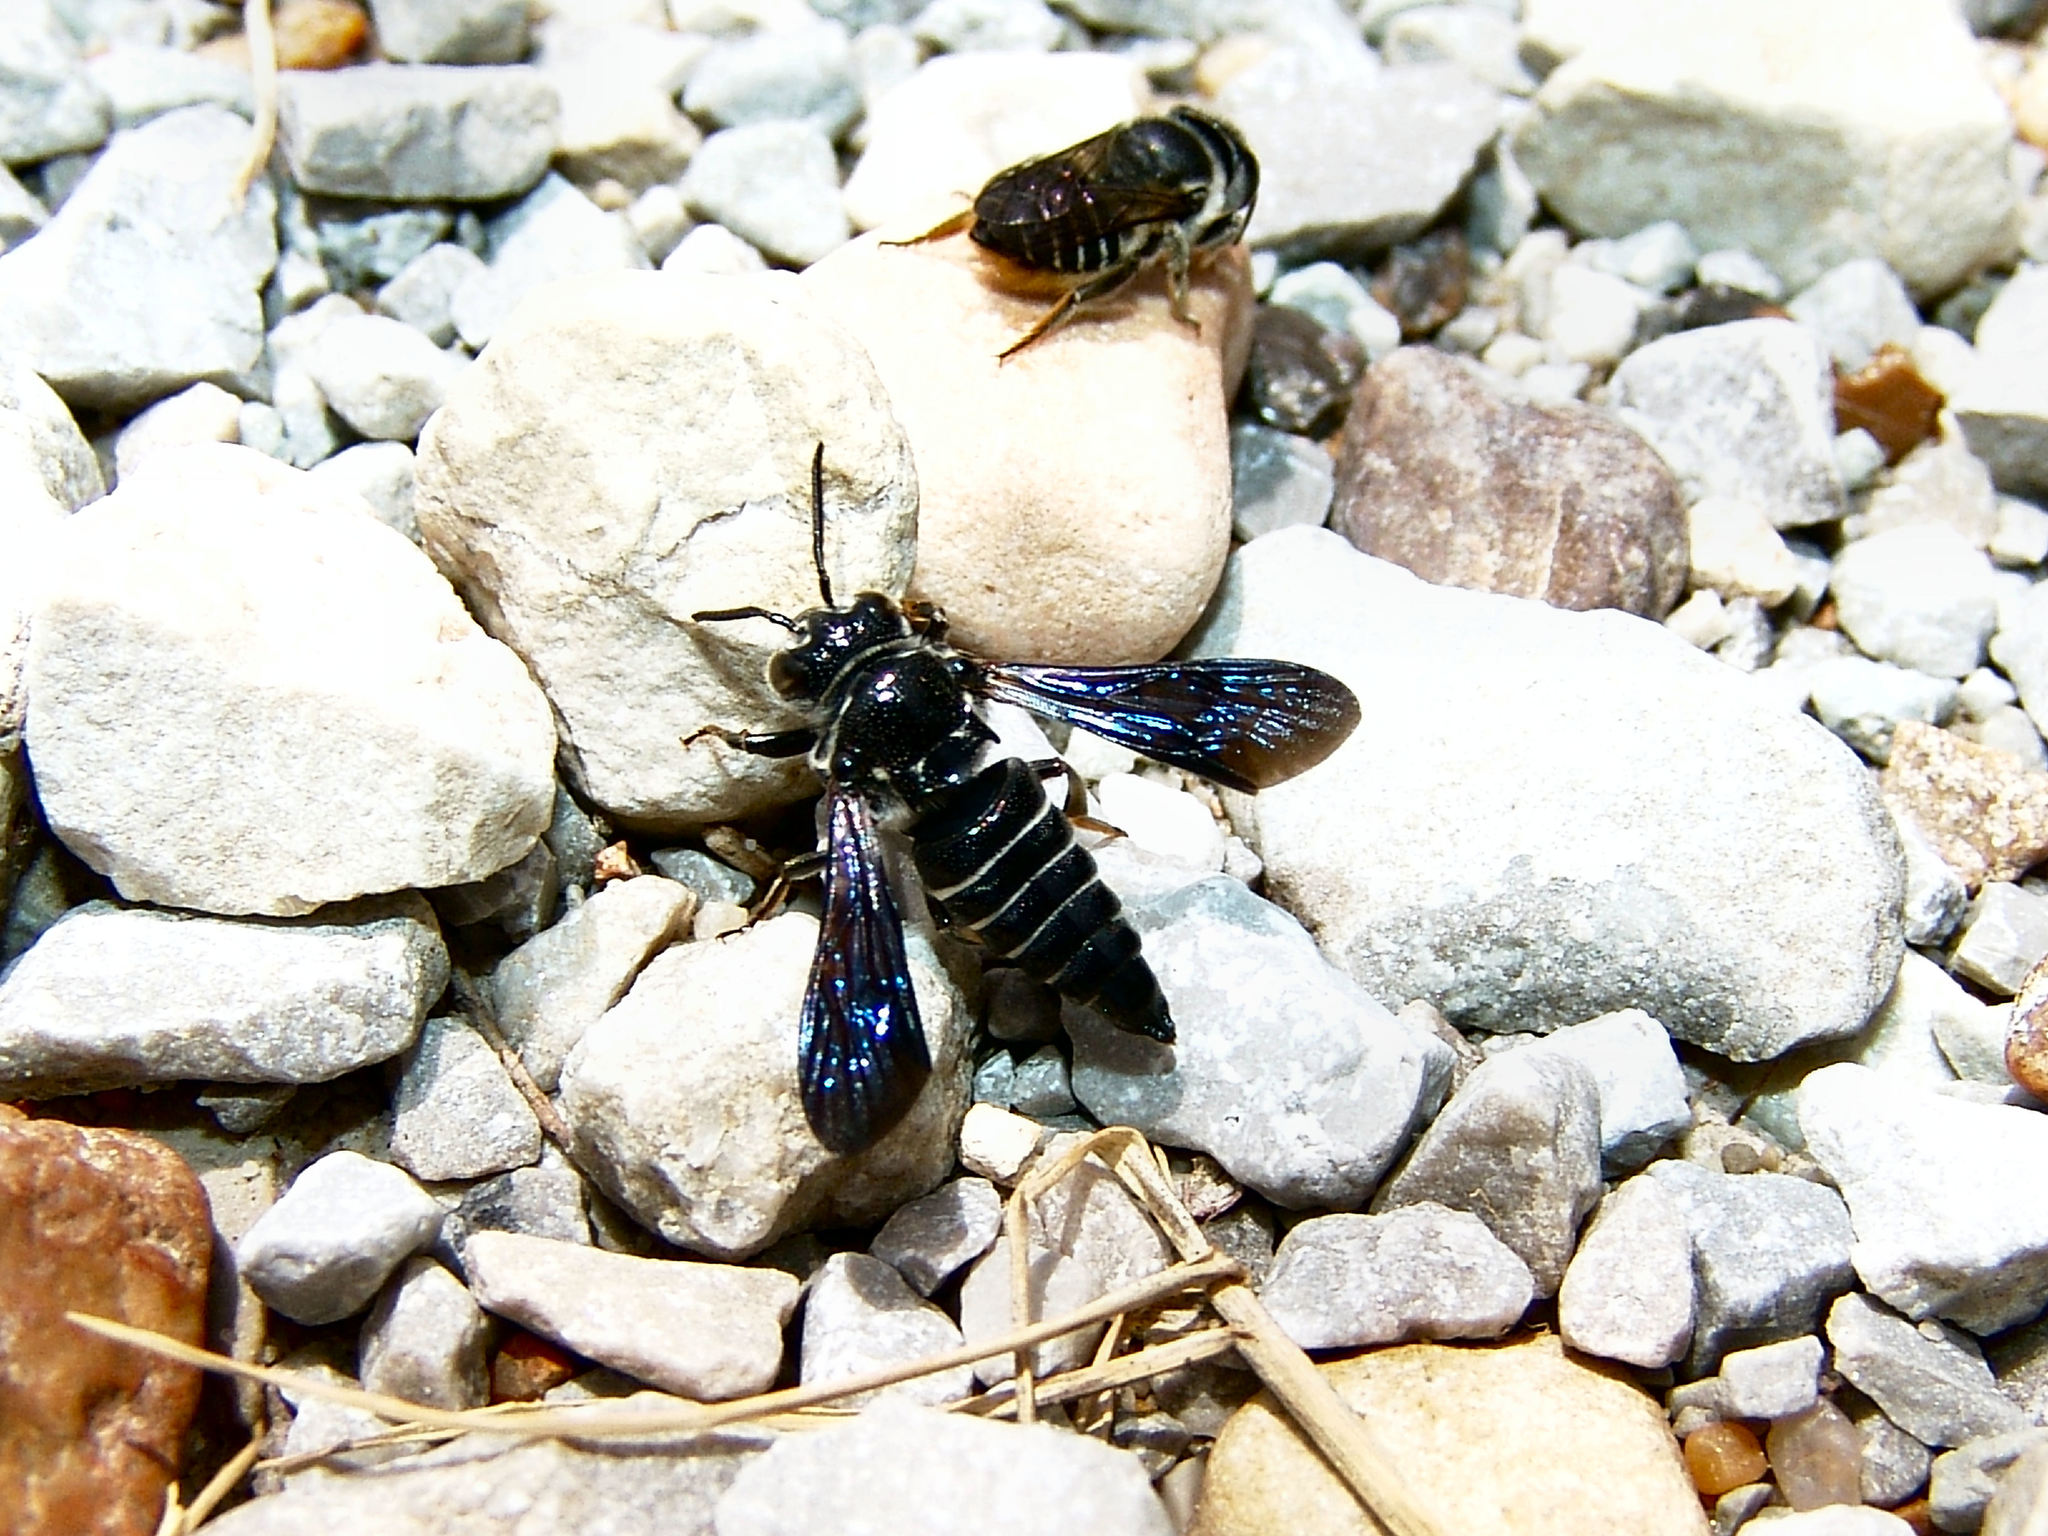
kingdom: Animalia
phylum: Arthropoda
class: Insecta
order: Hymenoptera
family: Megachilidae
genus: Coelioxys
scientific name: Coelioxys dolichos
